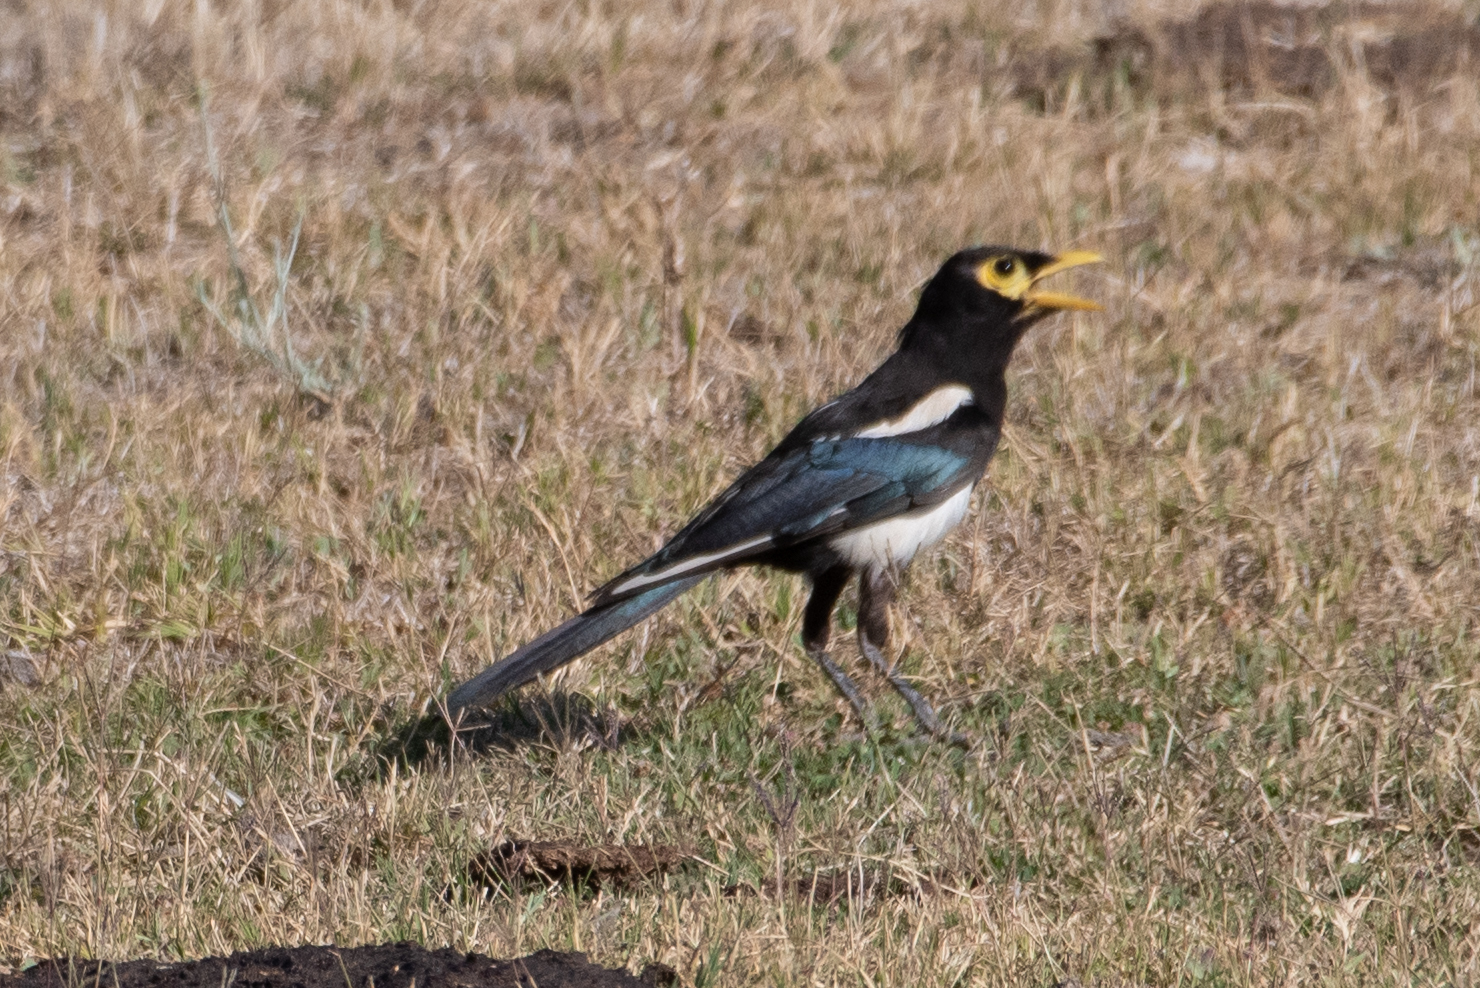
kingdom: Animalia
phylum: Chordata
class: Aves
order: Passeriformes
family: Corvidae
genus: Pica
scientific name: Pica nuttalli
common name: Yellow-billed magpie
